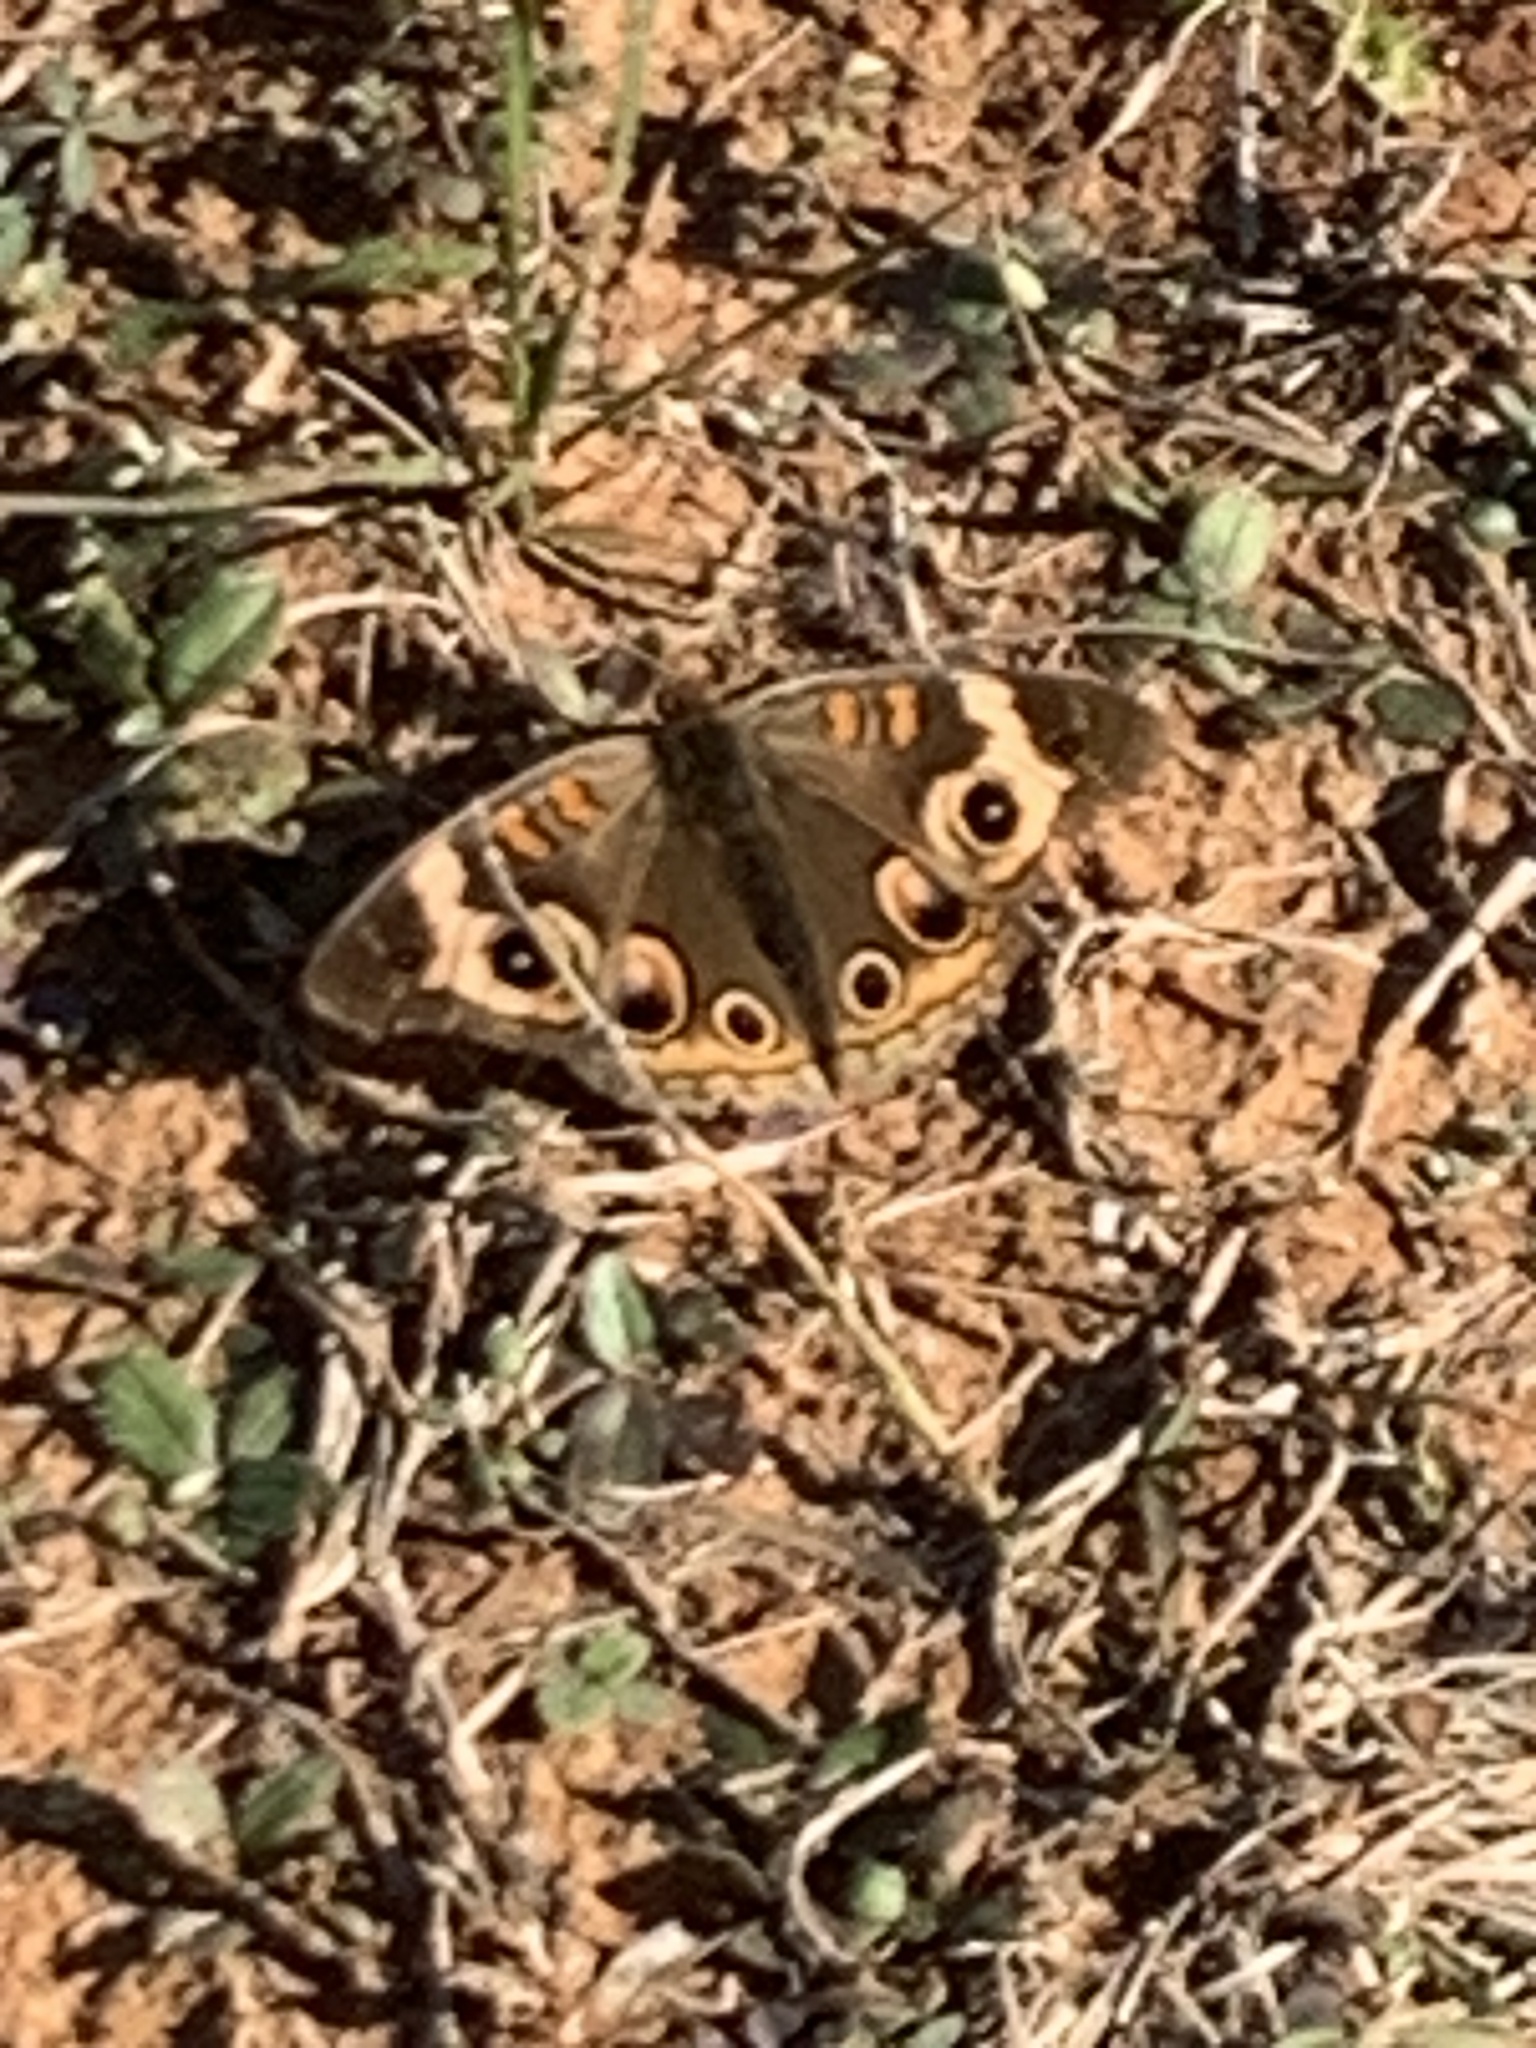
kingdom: Animalia
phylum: Arthropoda
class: Insecta
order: Lepidoptera
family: Nymphalidae
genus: Junonia
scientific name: Junonia coenia
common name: Common buckeye
